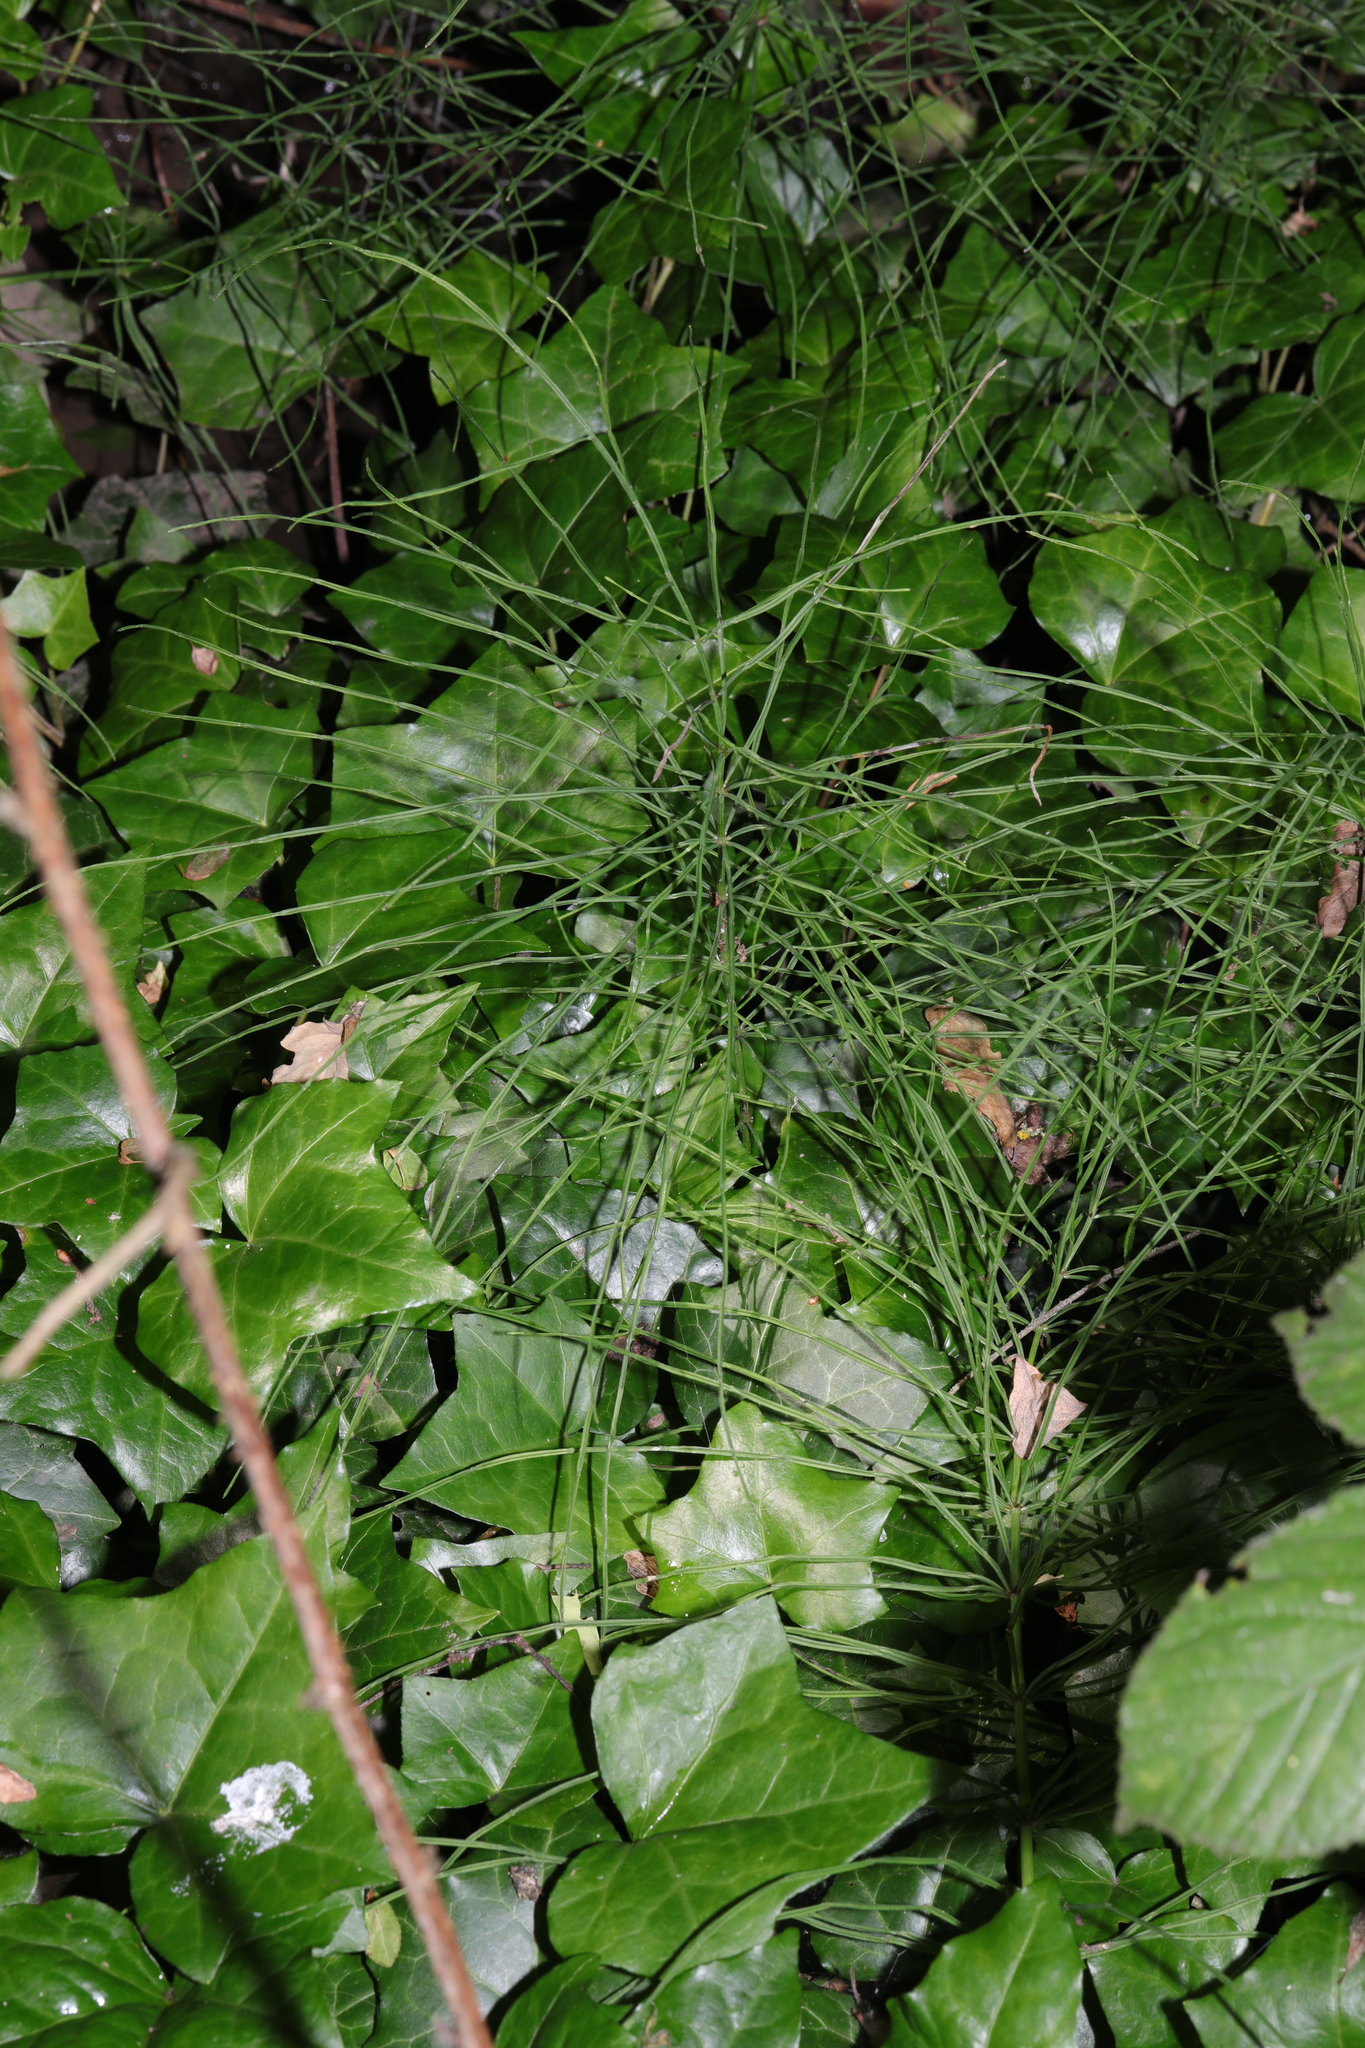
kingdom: Plantae
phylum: Tracheophyta
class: Polypodiopsida
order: Equisetales
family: Equisetaceae
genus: Equisetum
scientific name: Equisetum arvense
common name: Field horsetail
